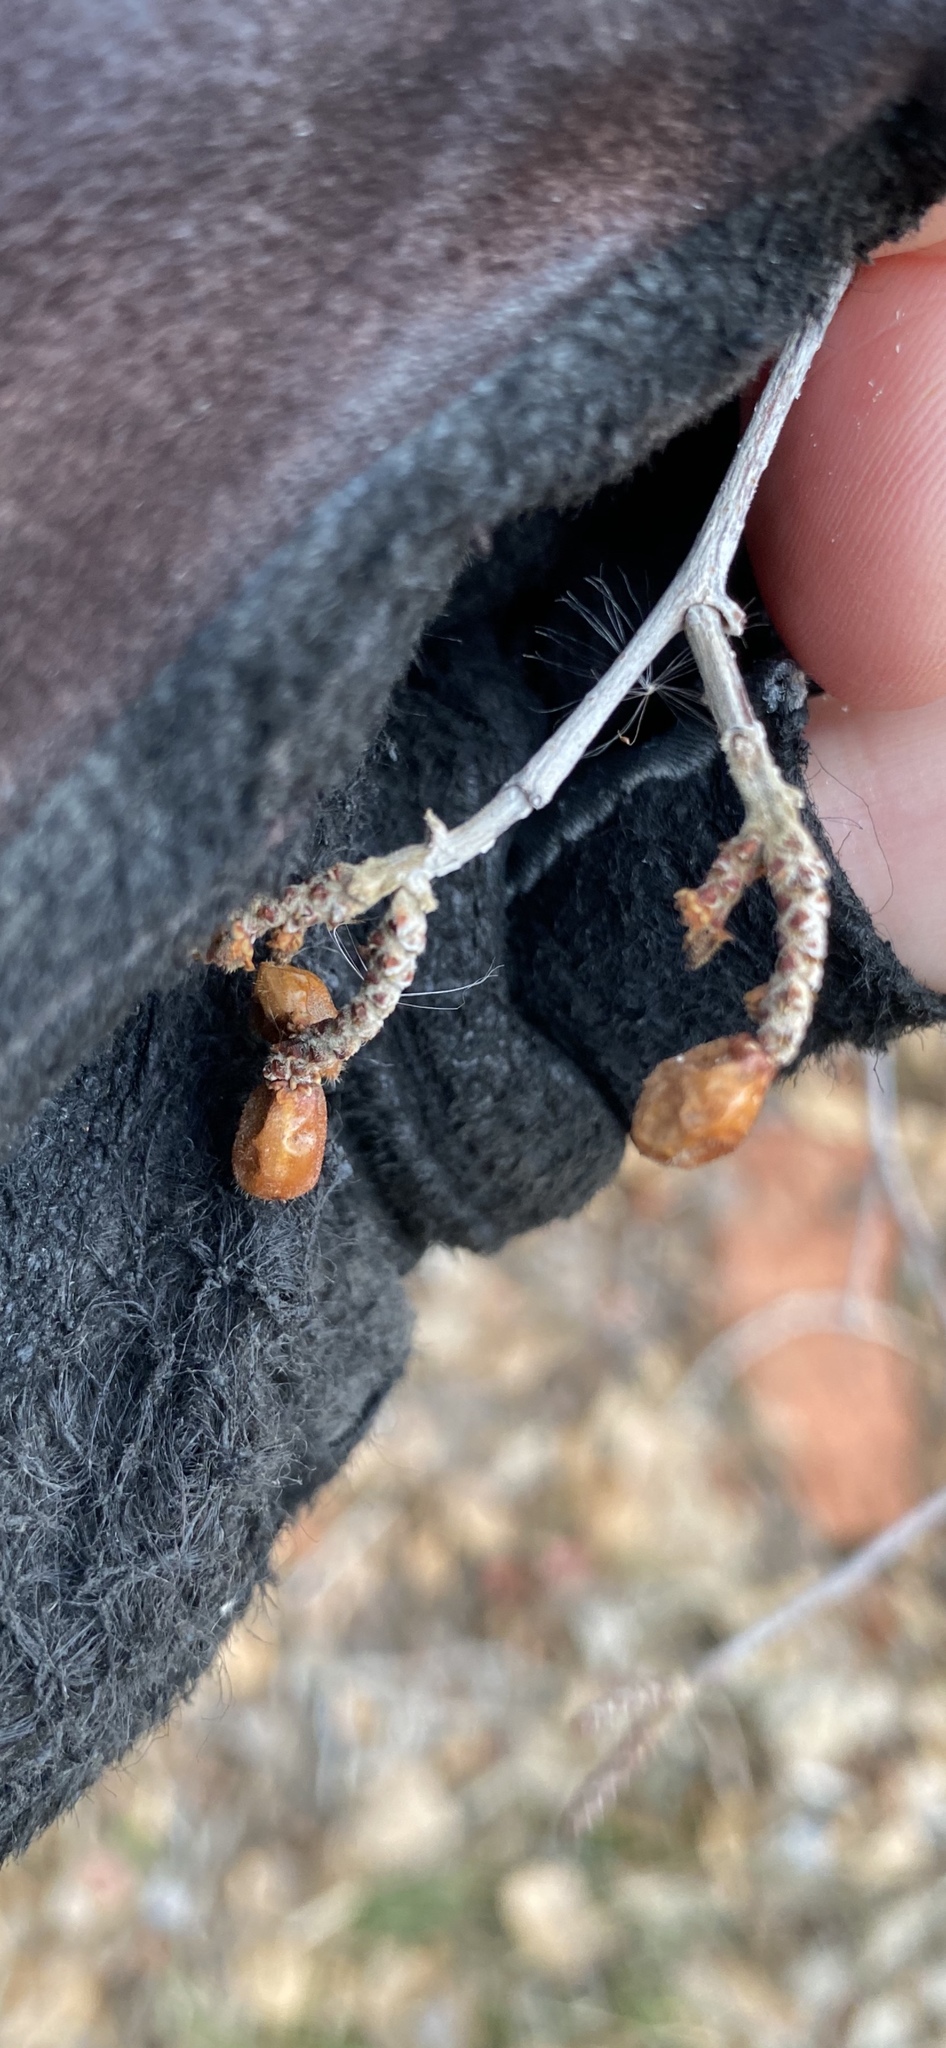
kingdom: Plantae
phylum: Tracheophyta
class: Magnoliopsida
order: Sapindales
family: Anacardiaceae
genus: Rhus
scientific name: Rhus aromatica
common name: Aromatic sumac
